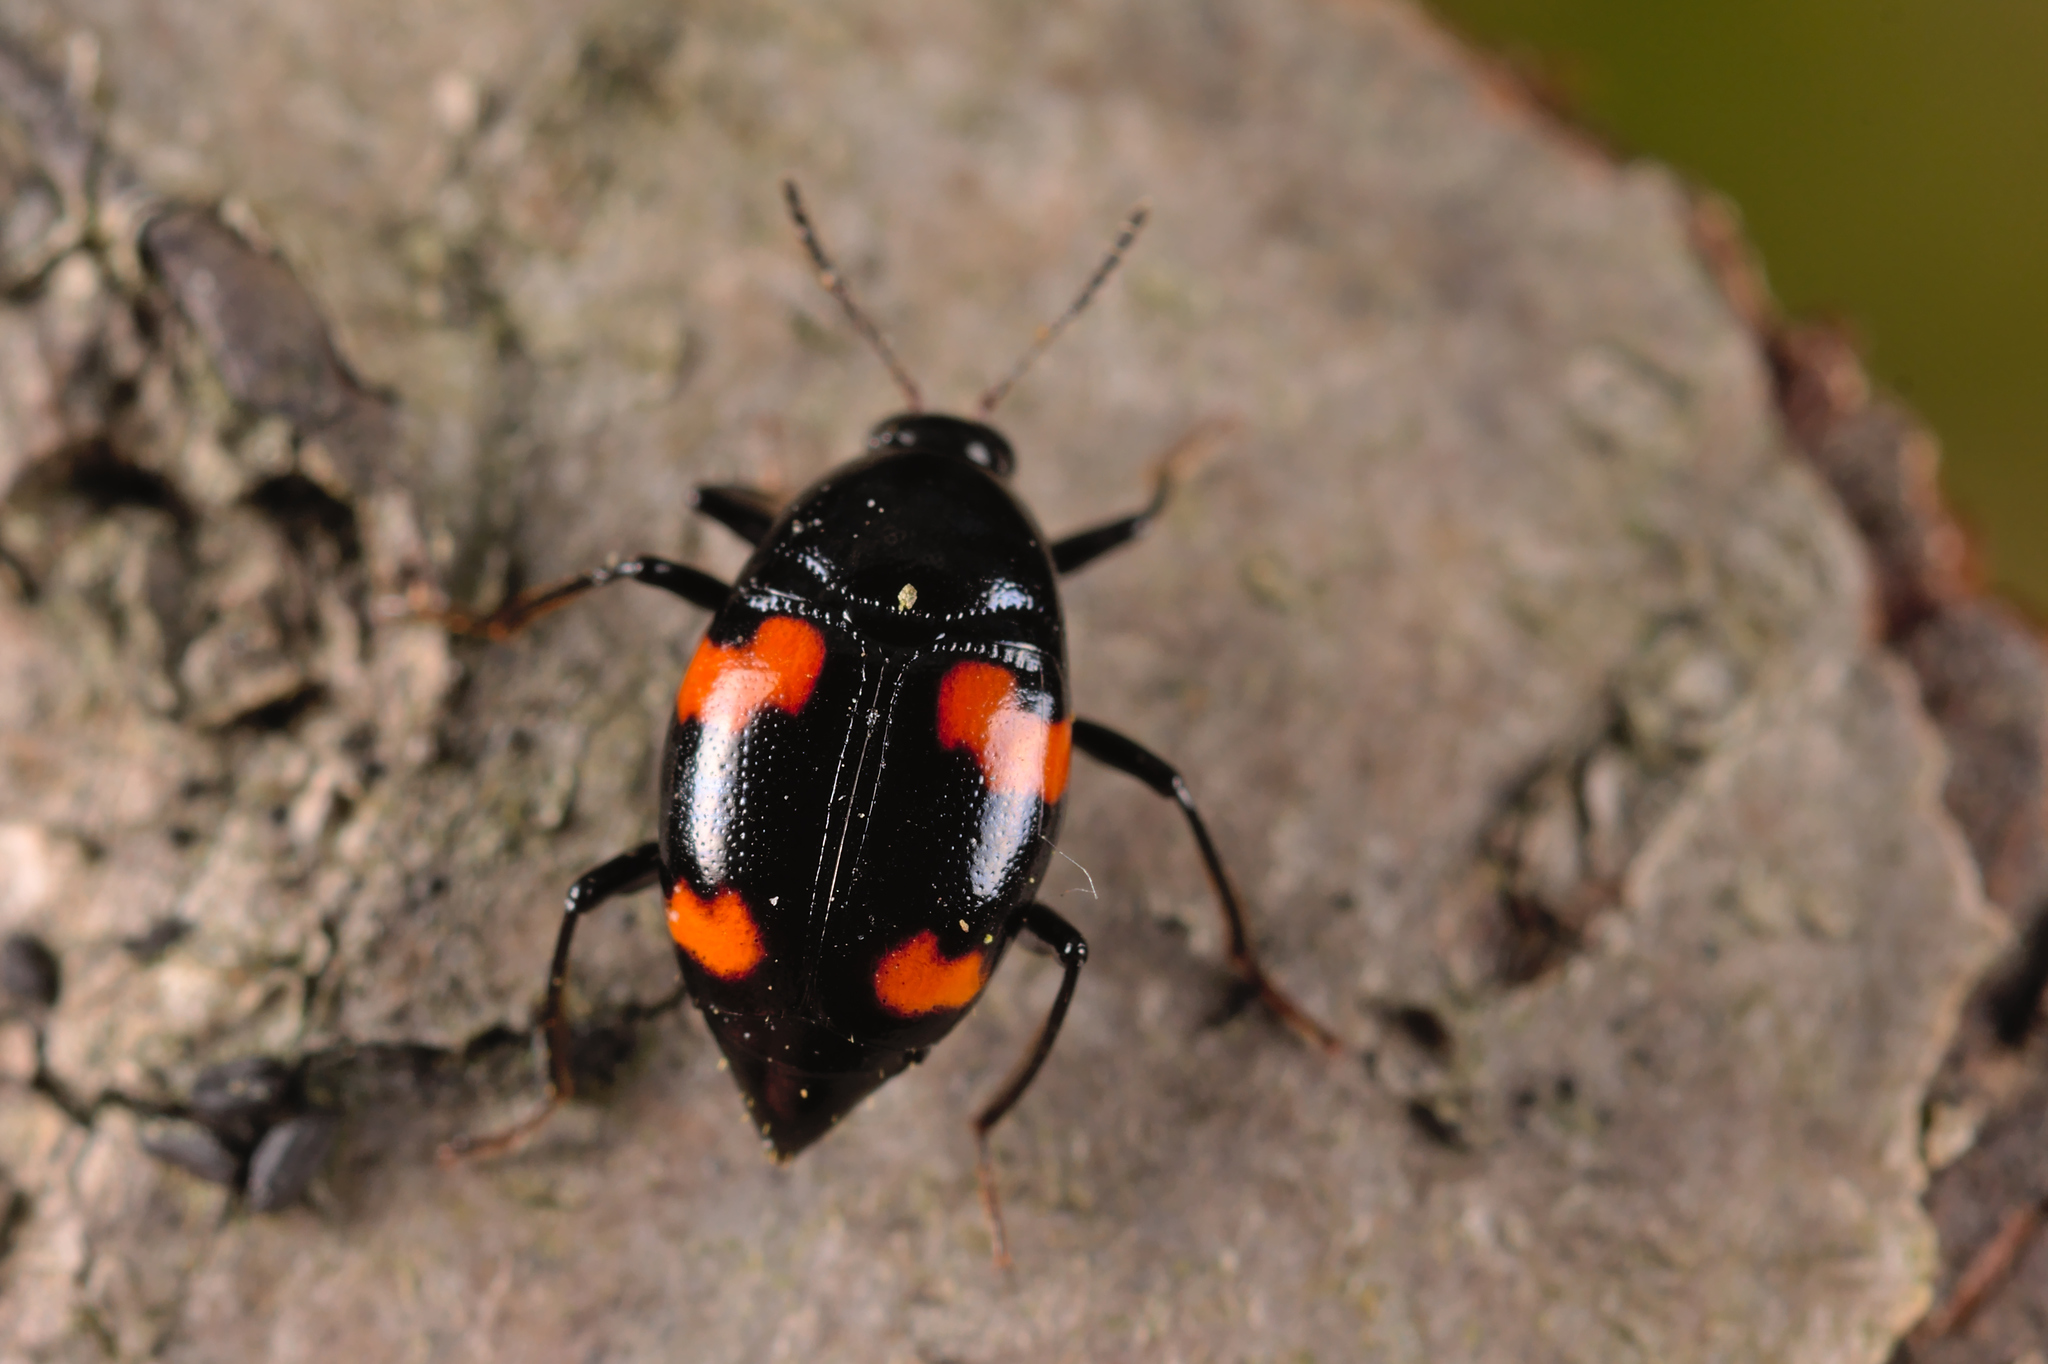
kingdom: Animalia
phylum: Arthropoda
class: Insecta
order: Coleoptera
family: Staphylinidae
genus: Scaphidium
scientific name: Scaphidium quadrimaculatum
